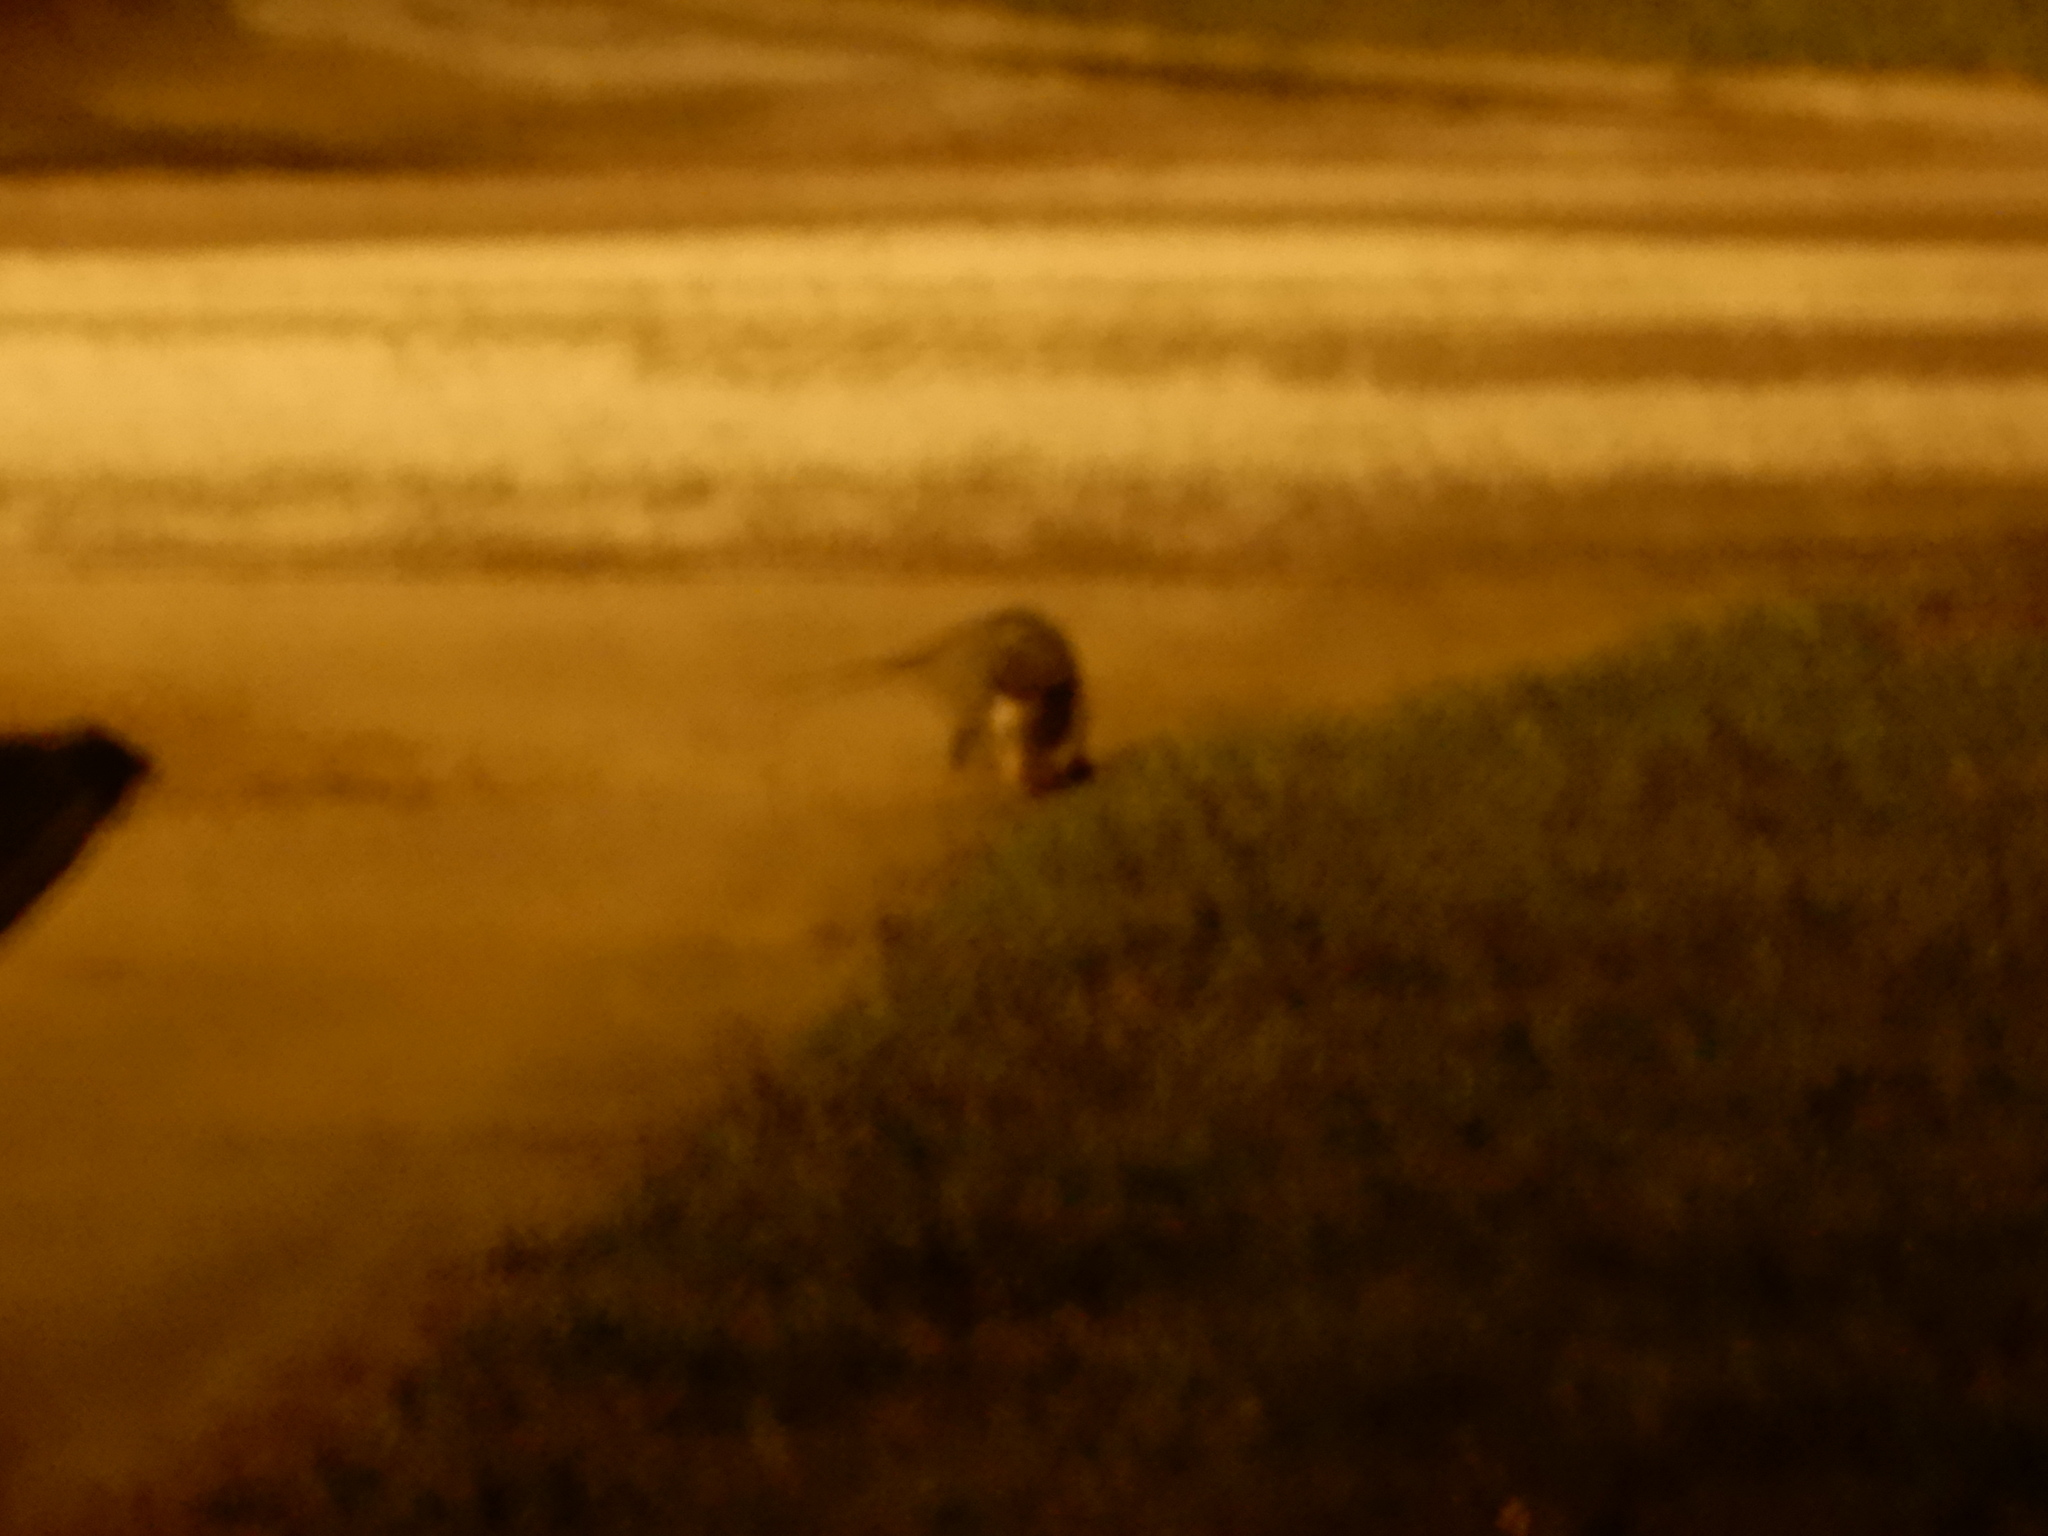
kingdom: Animalia
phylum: Chordata
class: Mammalia
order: Didelphimorphia
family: Didelphidae
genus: Didelphis
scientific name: Didelphis virginiana
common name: Virginia opossum
